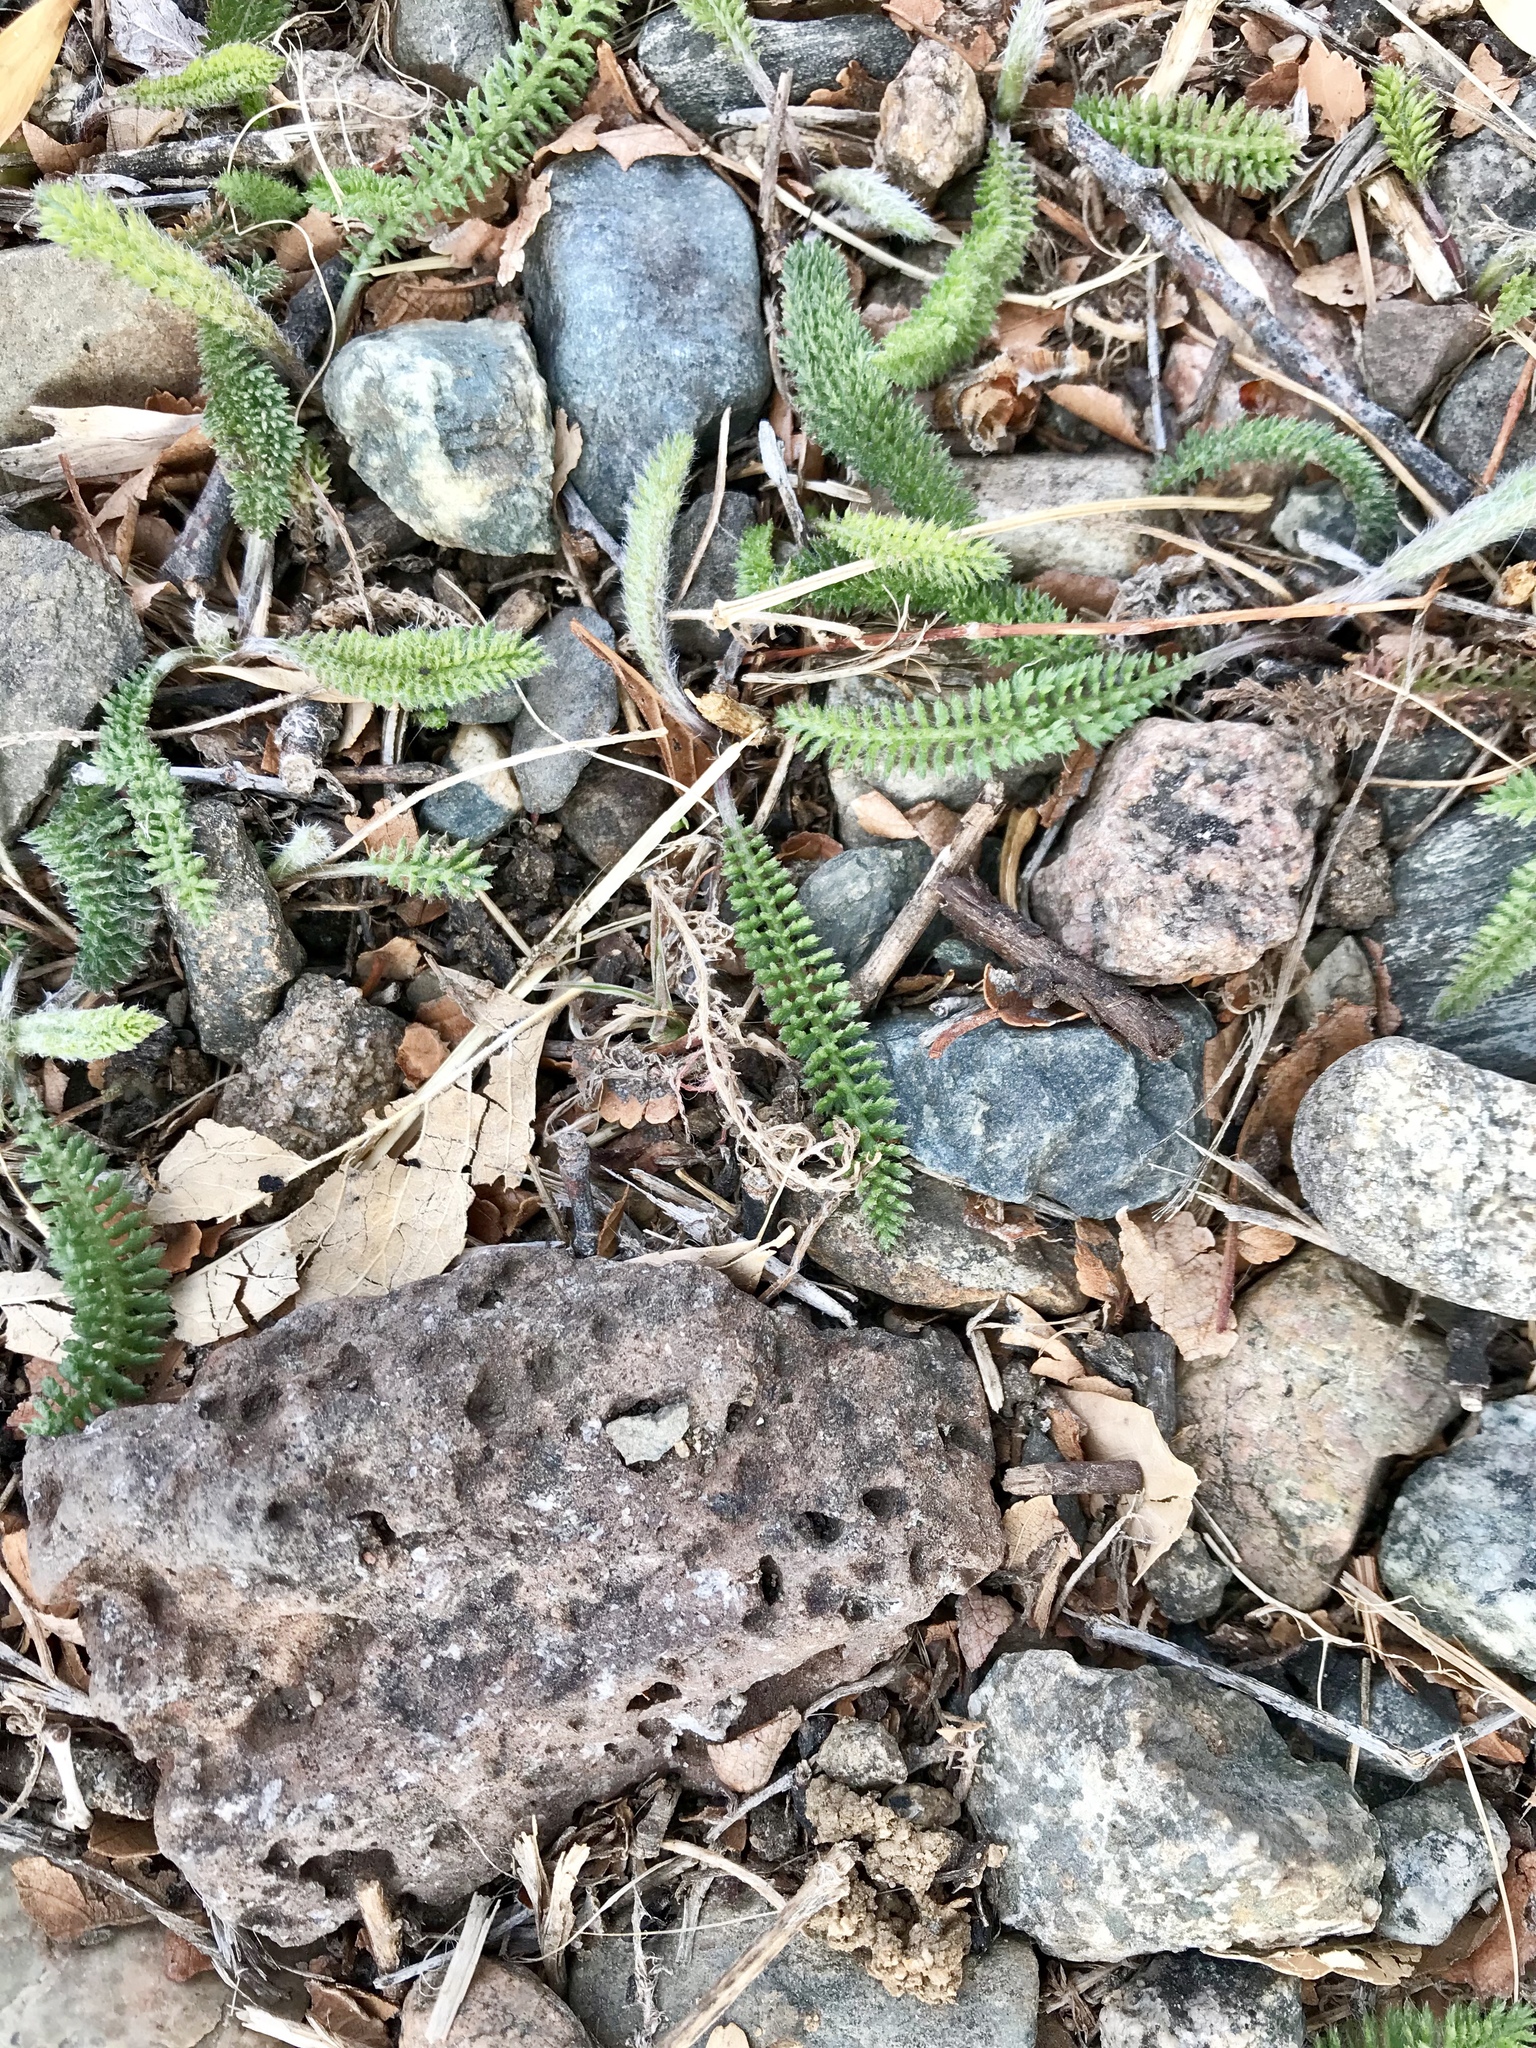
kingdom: Plantae
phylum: Tracheophyta
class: Magnoliopsida
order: Asterales
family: Asteraceae
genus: Achillea
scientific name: Achillea millefolium
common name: Yarrow
